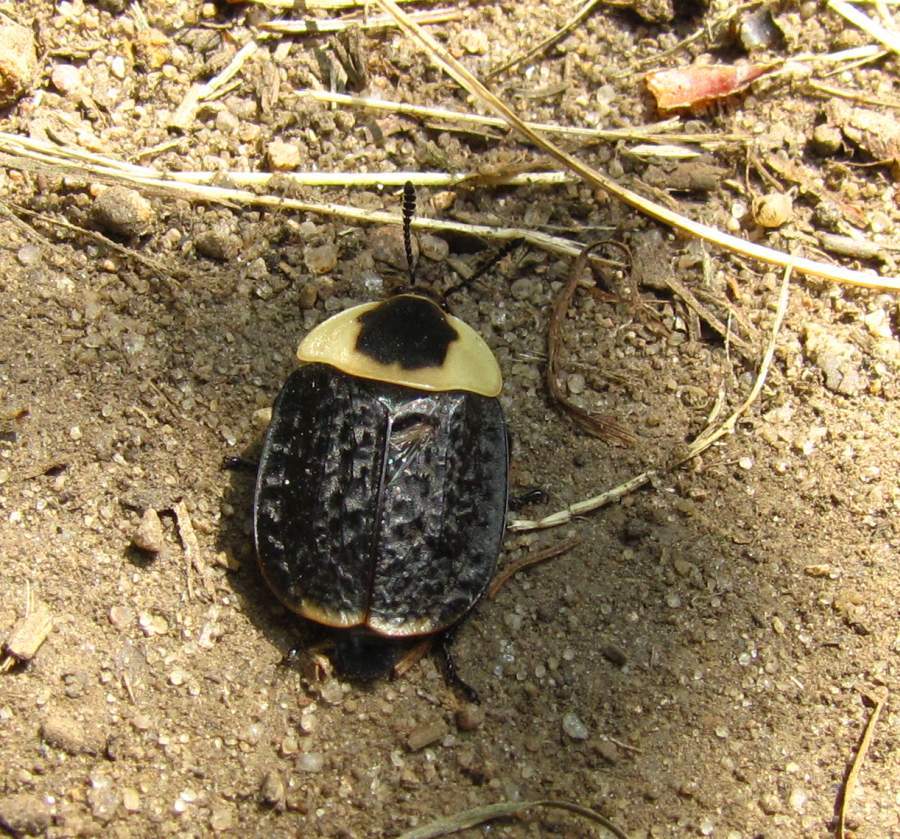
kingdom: Animalia
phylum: Arthropoda
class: Insecta
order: Coleoptera
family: Staphylinidae
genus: Necrophila
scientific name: Necrophila americana
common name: American carrion beetle
